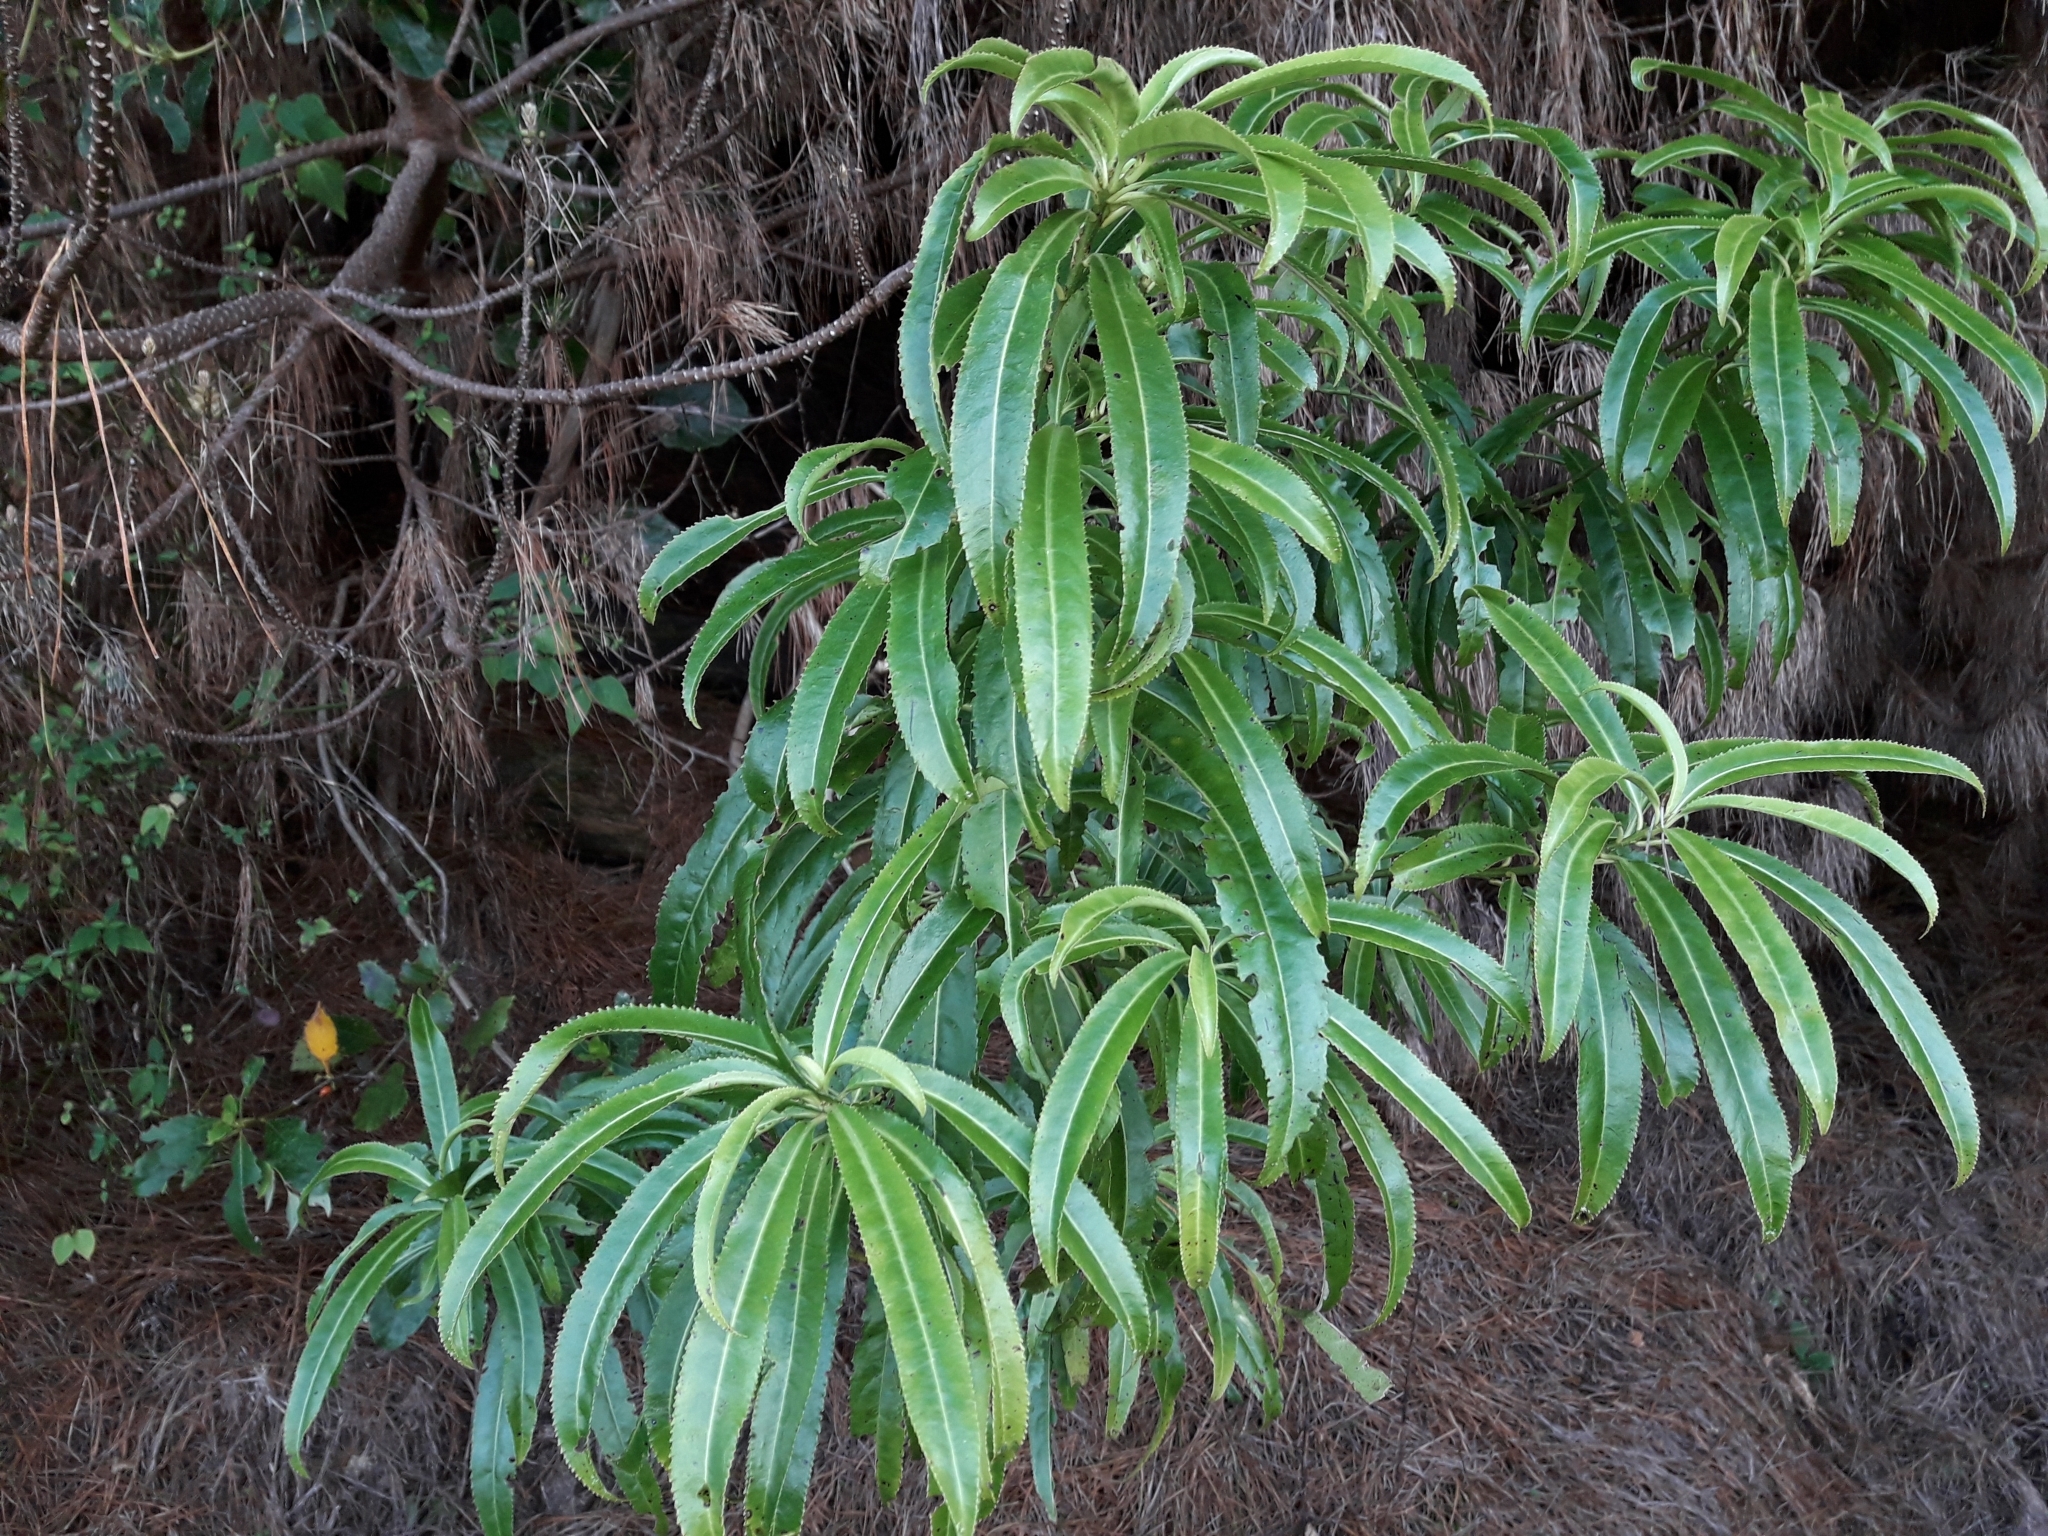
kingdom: Plantae
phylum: Tracheophyta
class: Magnoliopsida
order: Malpighiales
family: Violaceae
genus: Melicytus
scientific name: Melicytus lanceolatus
